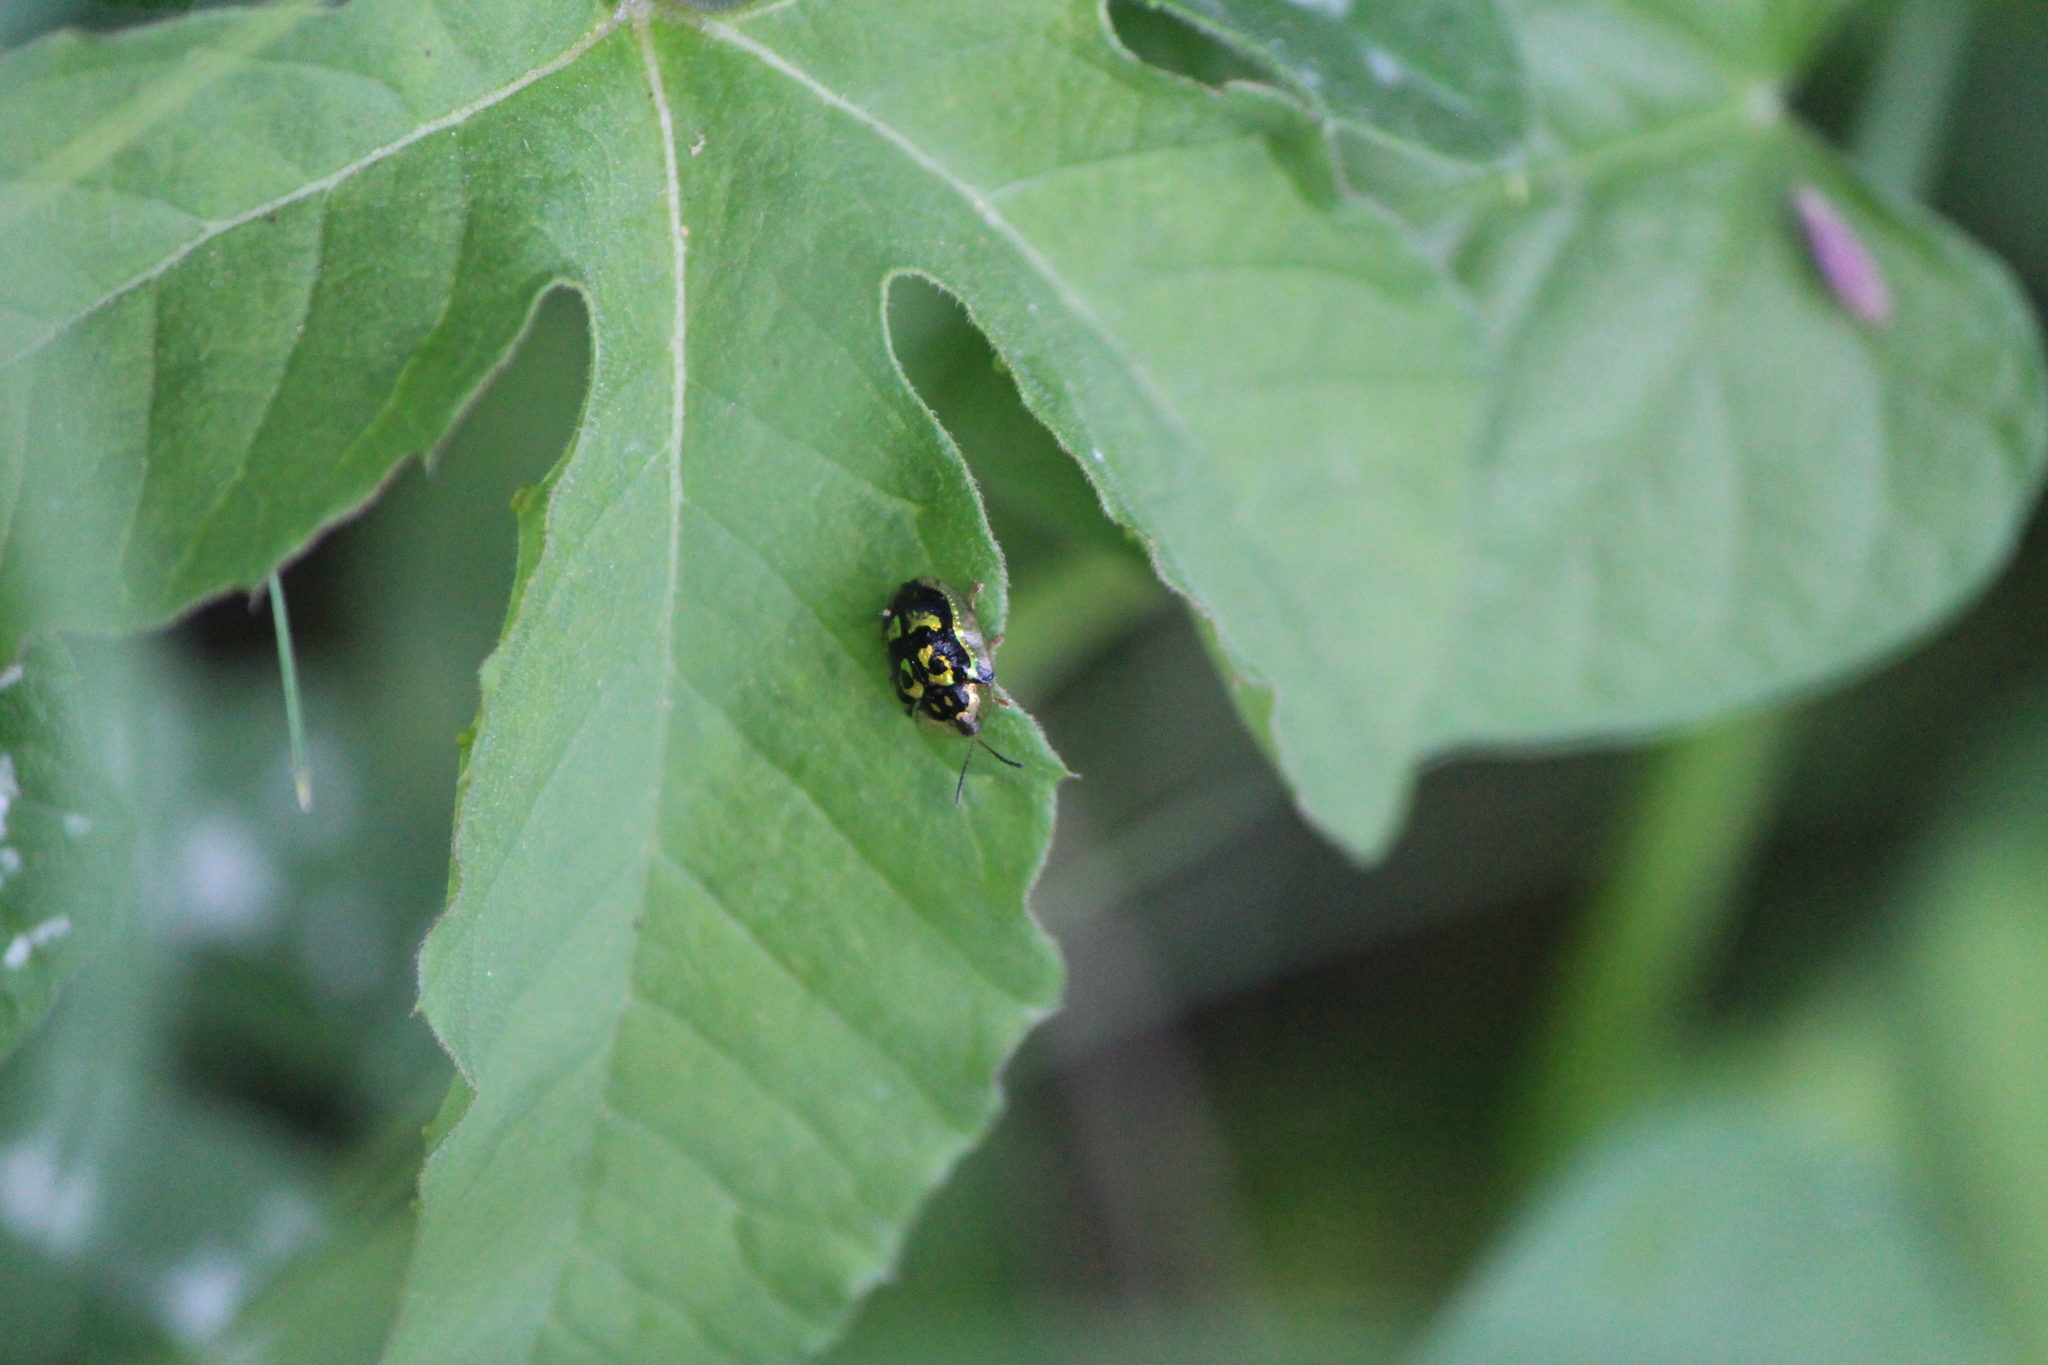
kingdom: Animalia
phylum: Arthropoda
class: Insecta
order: Coleoptera
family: Chrysomelidae
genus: Deloyala
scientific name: Deloyala guttata
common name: Mottled tortoise beetle
